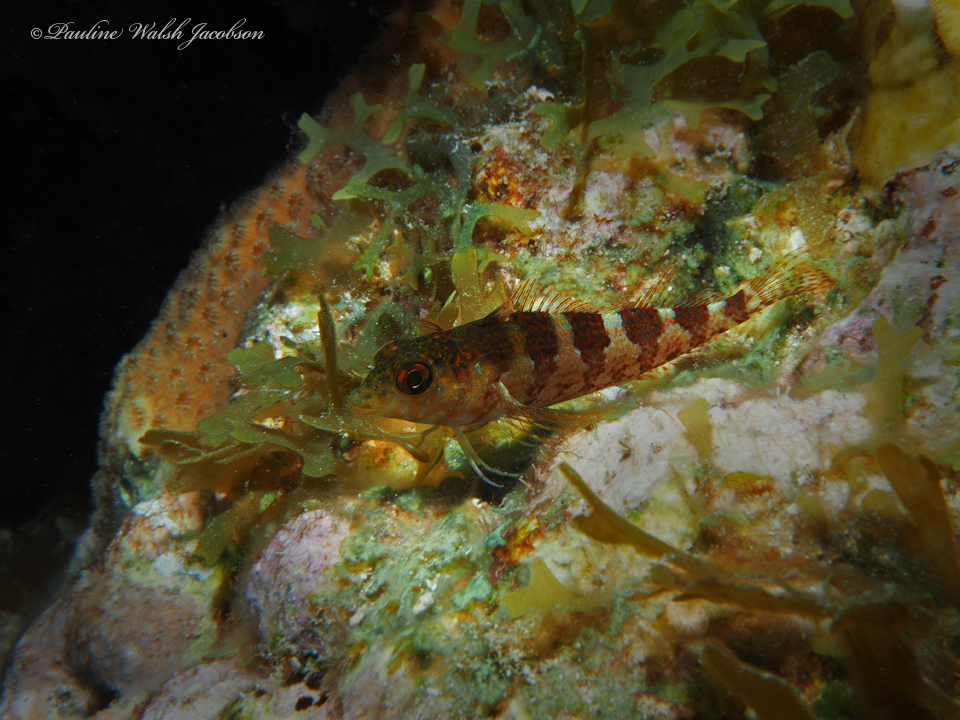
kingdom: Animalia
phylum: Chordata
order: Perciformes
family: Labrisomidae
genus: Malacoctenus
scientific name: Malacoctenus triangulatus
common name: Saddled blenny
